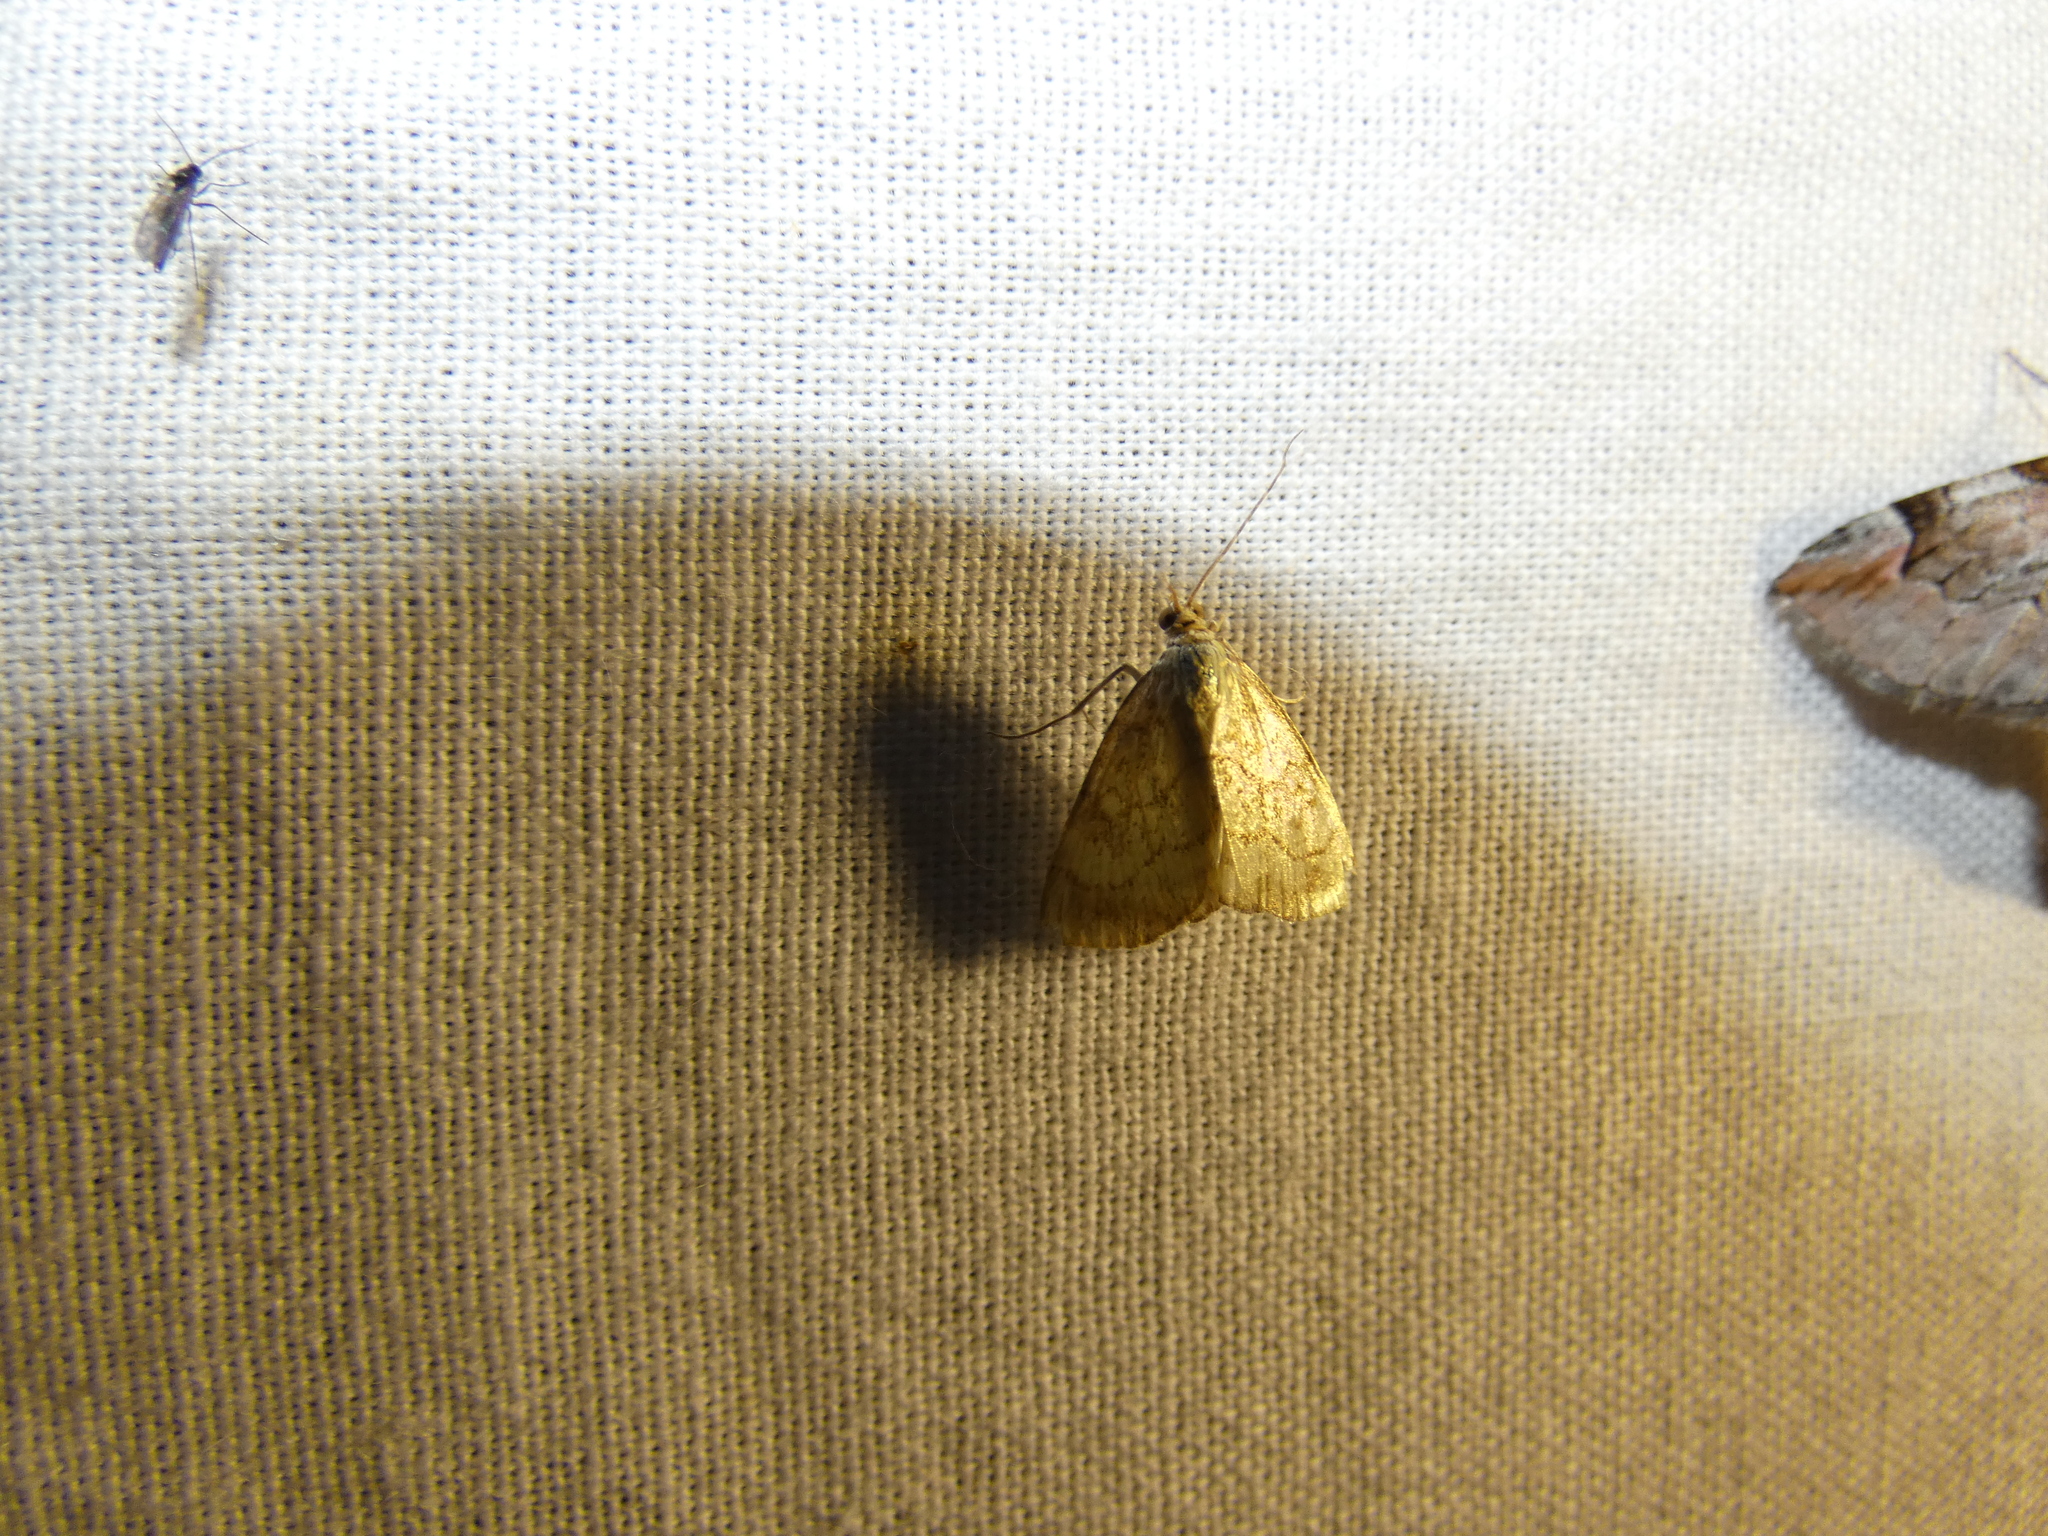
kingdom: Animalia
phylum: Arthropoda
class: Insecta
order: Lepidoptera
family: Crambidae
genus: Evergestis
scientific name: Evergestis pallidata
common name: Chequered pearl
